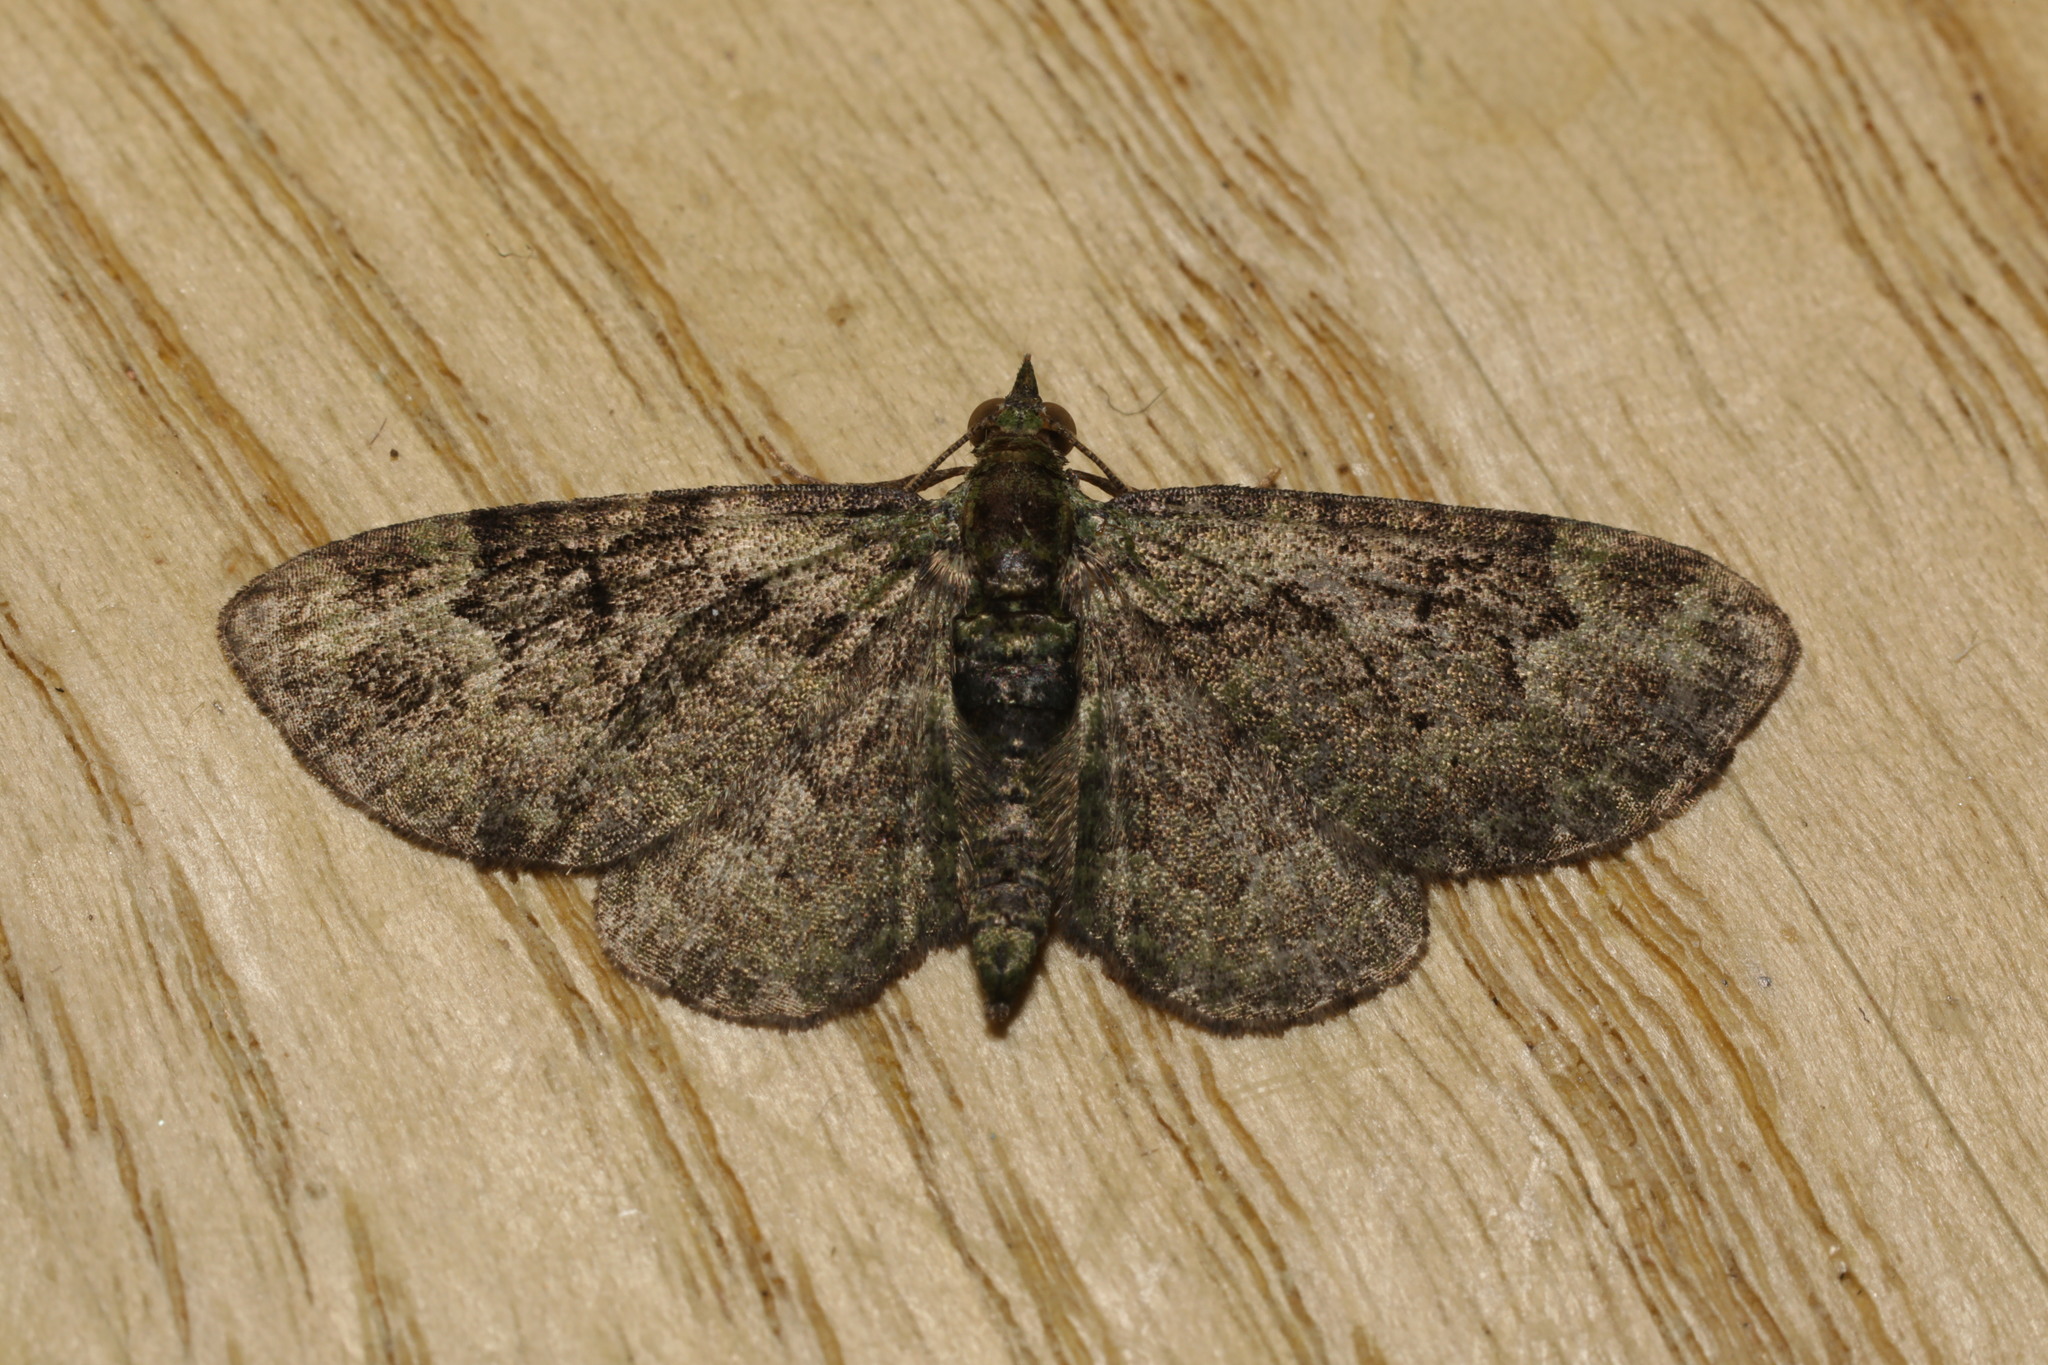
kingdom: Animalia
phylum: Arthropoda
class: Insecta
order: Lepidoptera
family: Geometridae
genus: Pasiphila
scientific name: Pasiphila rectangulata
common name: Green pug
